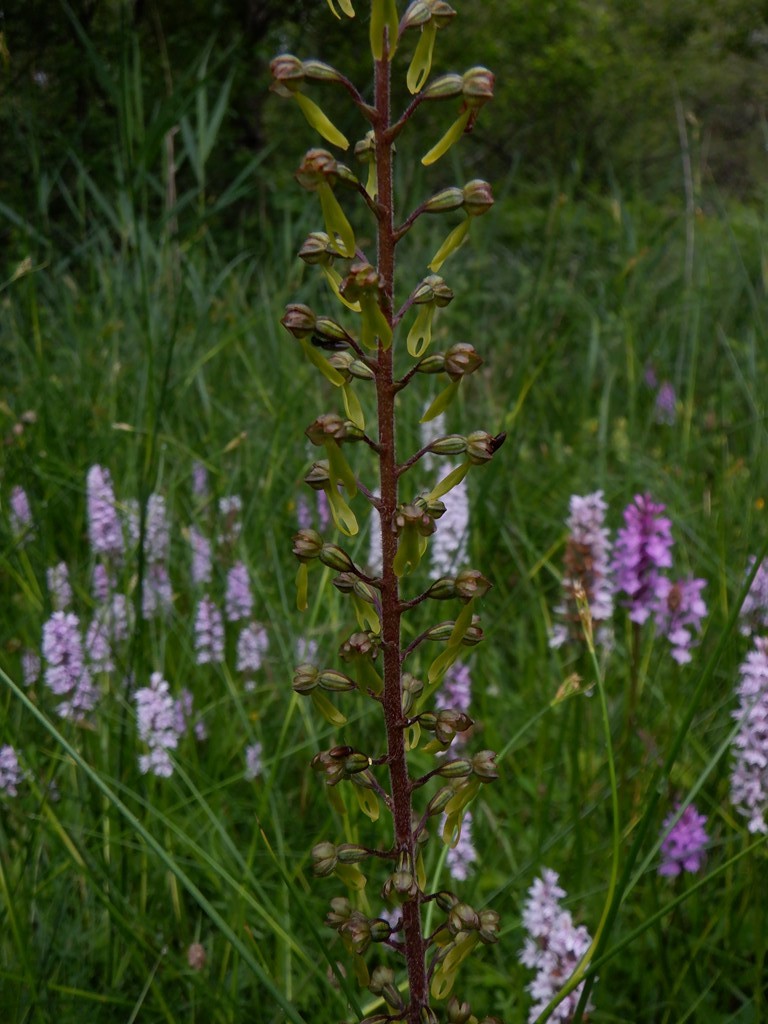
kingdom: Plantae
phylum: Tracheophyta
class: Liliopsida
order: Asparagales
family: Orchidaceae
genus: Neottia
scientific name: Neottia ovata
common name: Common twayblade
